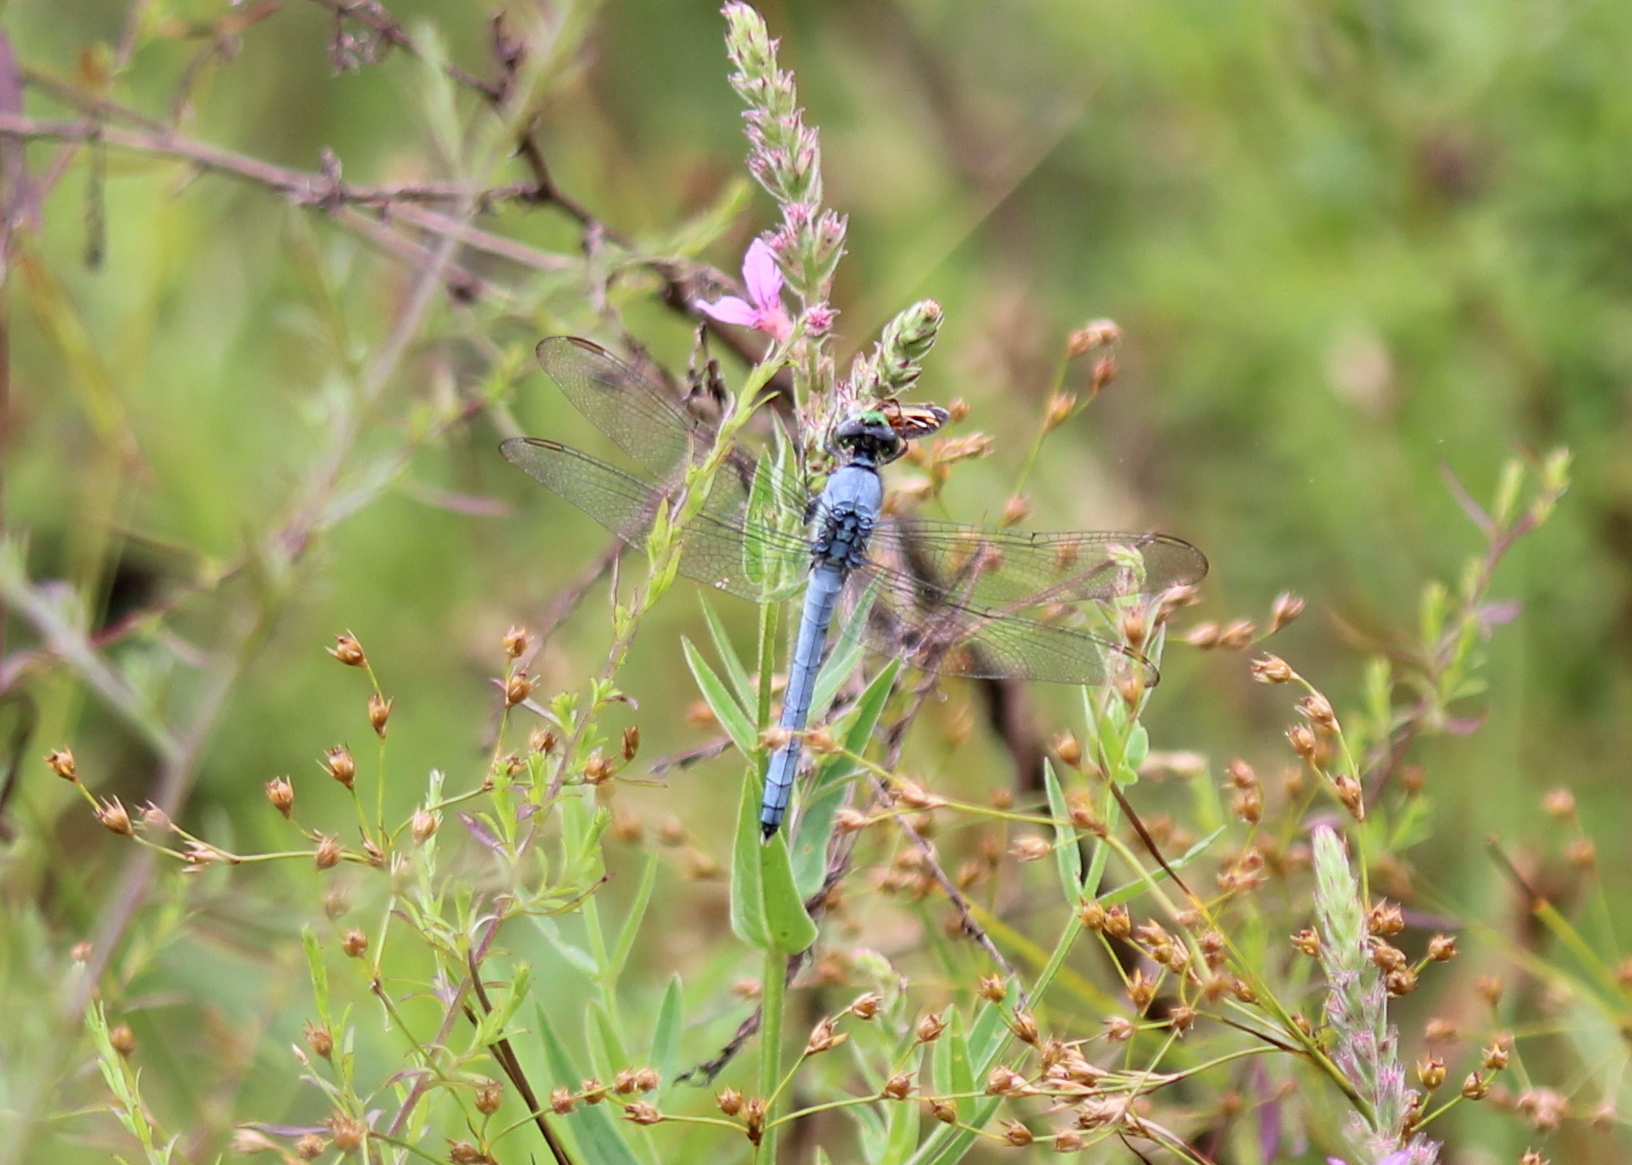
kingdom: Animalia
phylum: Arthropoda
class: Insecta
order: Odonata
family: Libellulidae
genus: Erythemis
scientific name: Erythemis simplicicollis
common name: Eastern pondhawk
